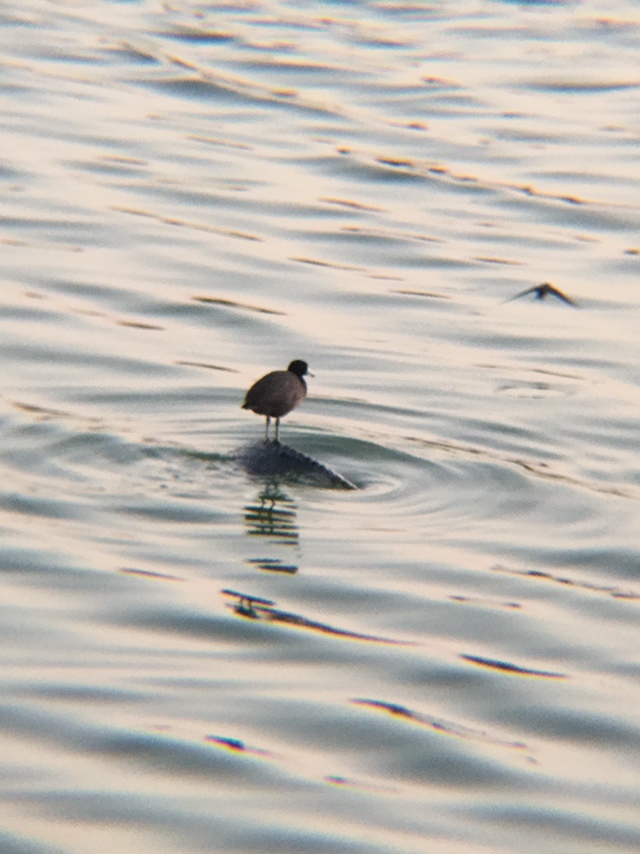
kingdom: Animalia
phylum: Chordata
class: Aves
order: Gruiformes
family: Rallidae
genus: Fulica
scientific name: Fulica americana
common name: American coot
